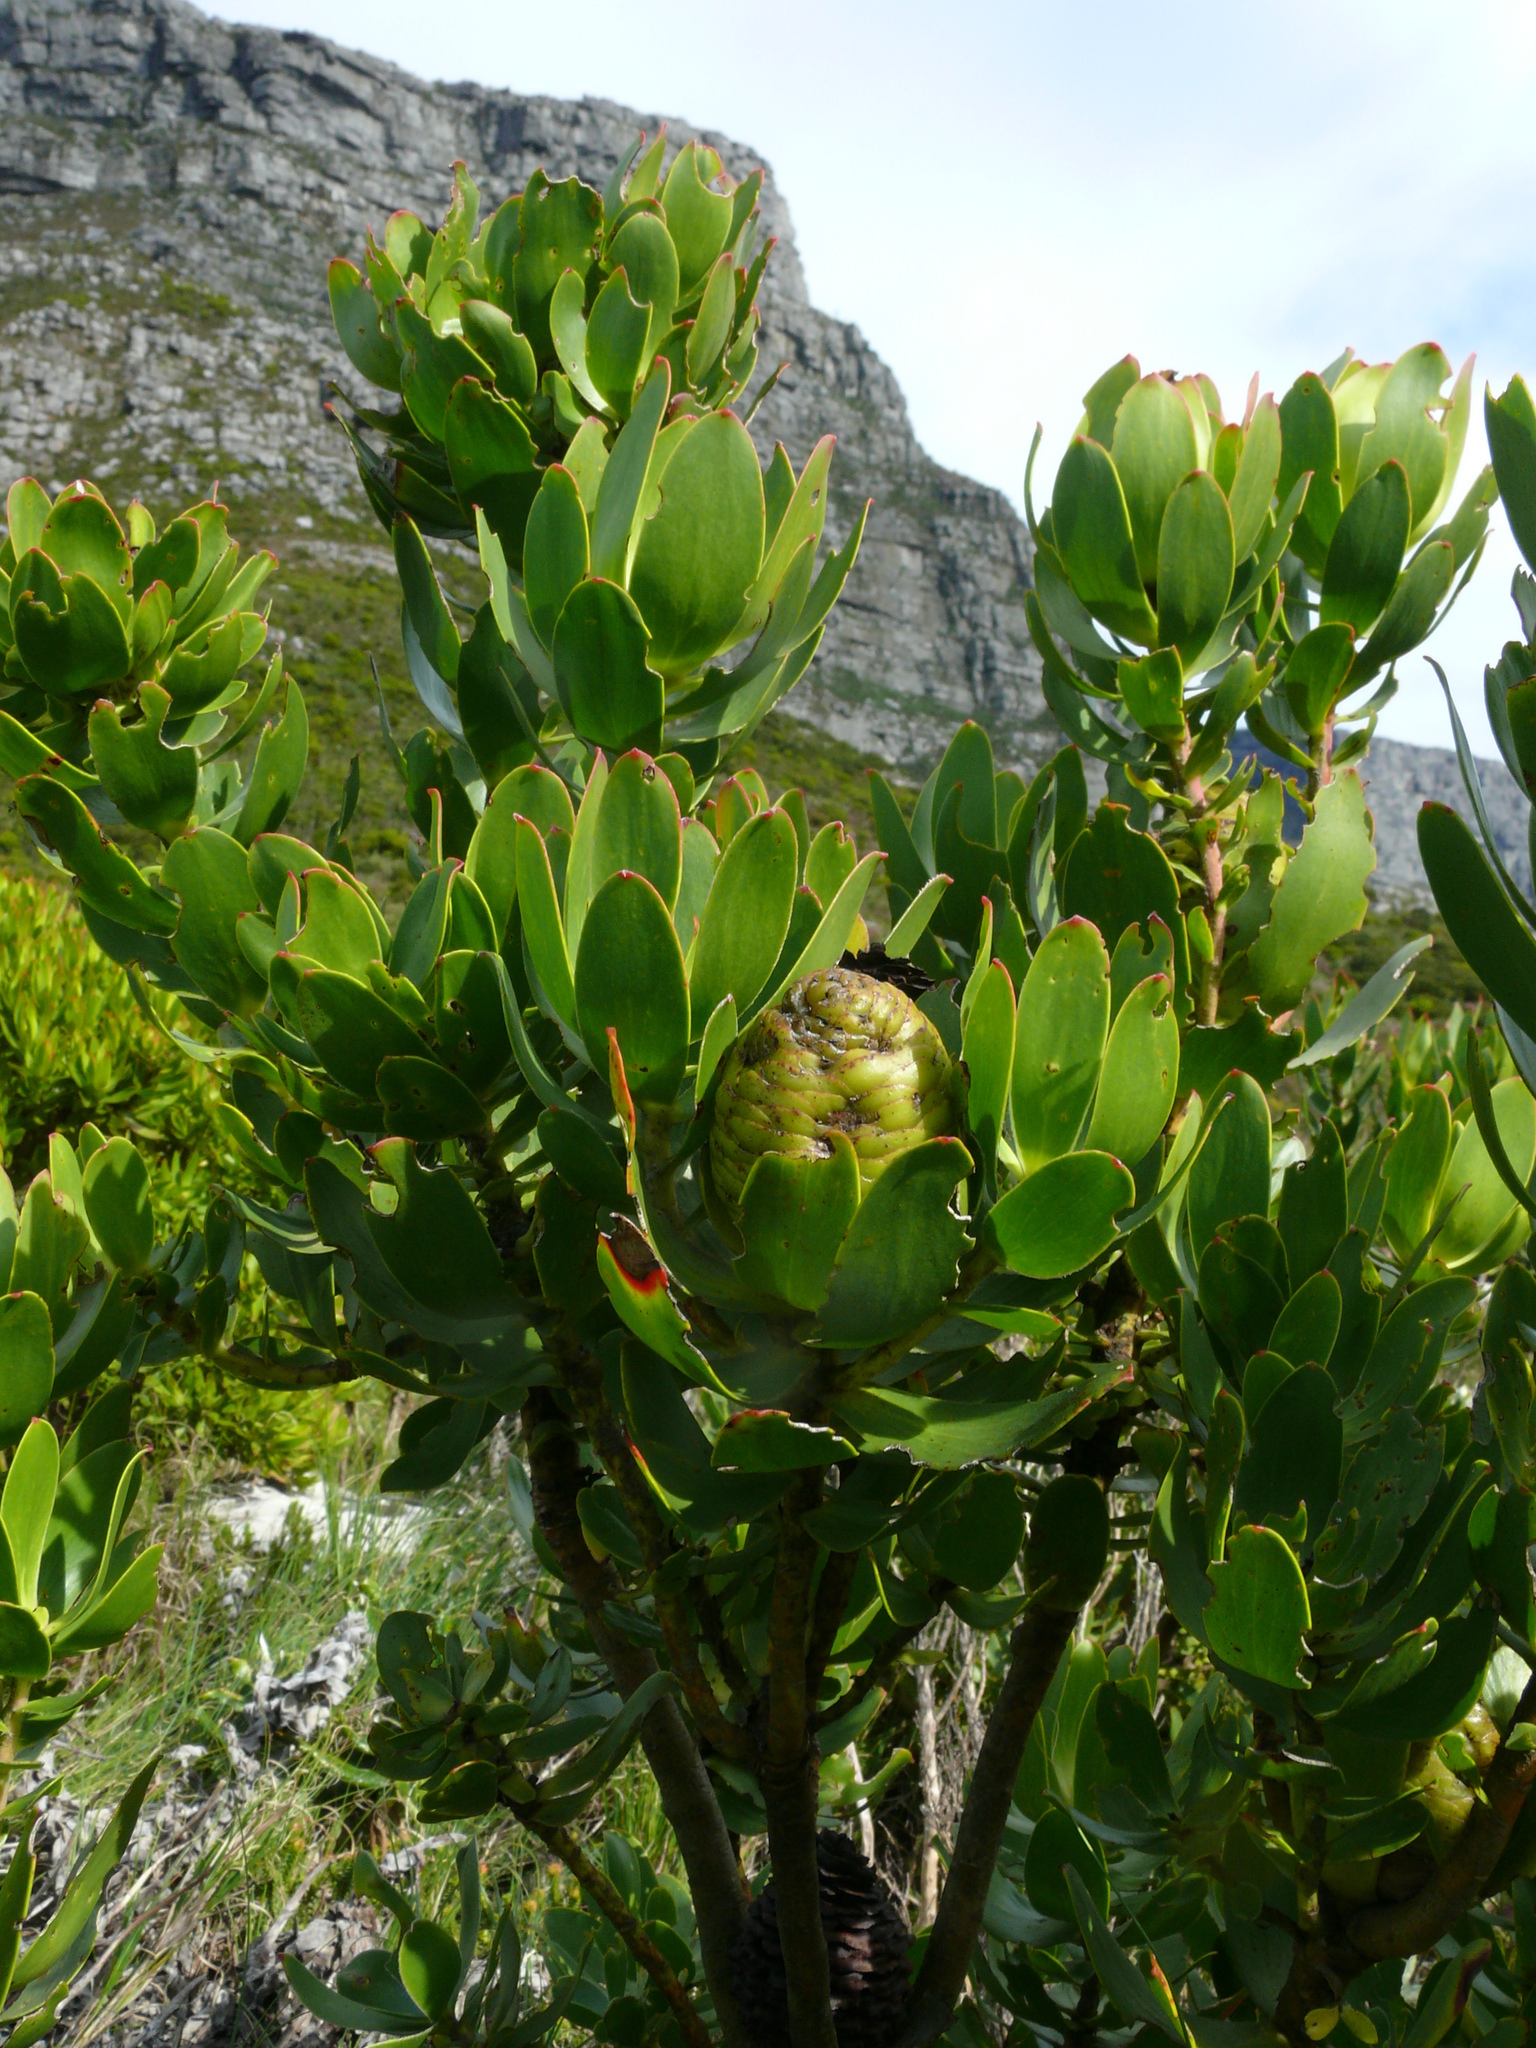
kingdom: Plantae
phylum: Tracheophyta
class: Magnoliopsida
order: Proteales
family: Proteaceae
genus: Leucadendron
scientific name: Leucadendron strobilinum
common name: Mountain rose
